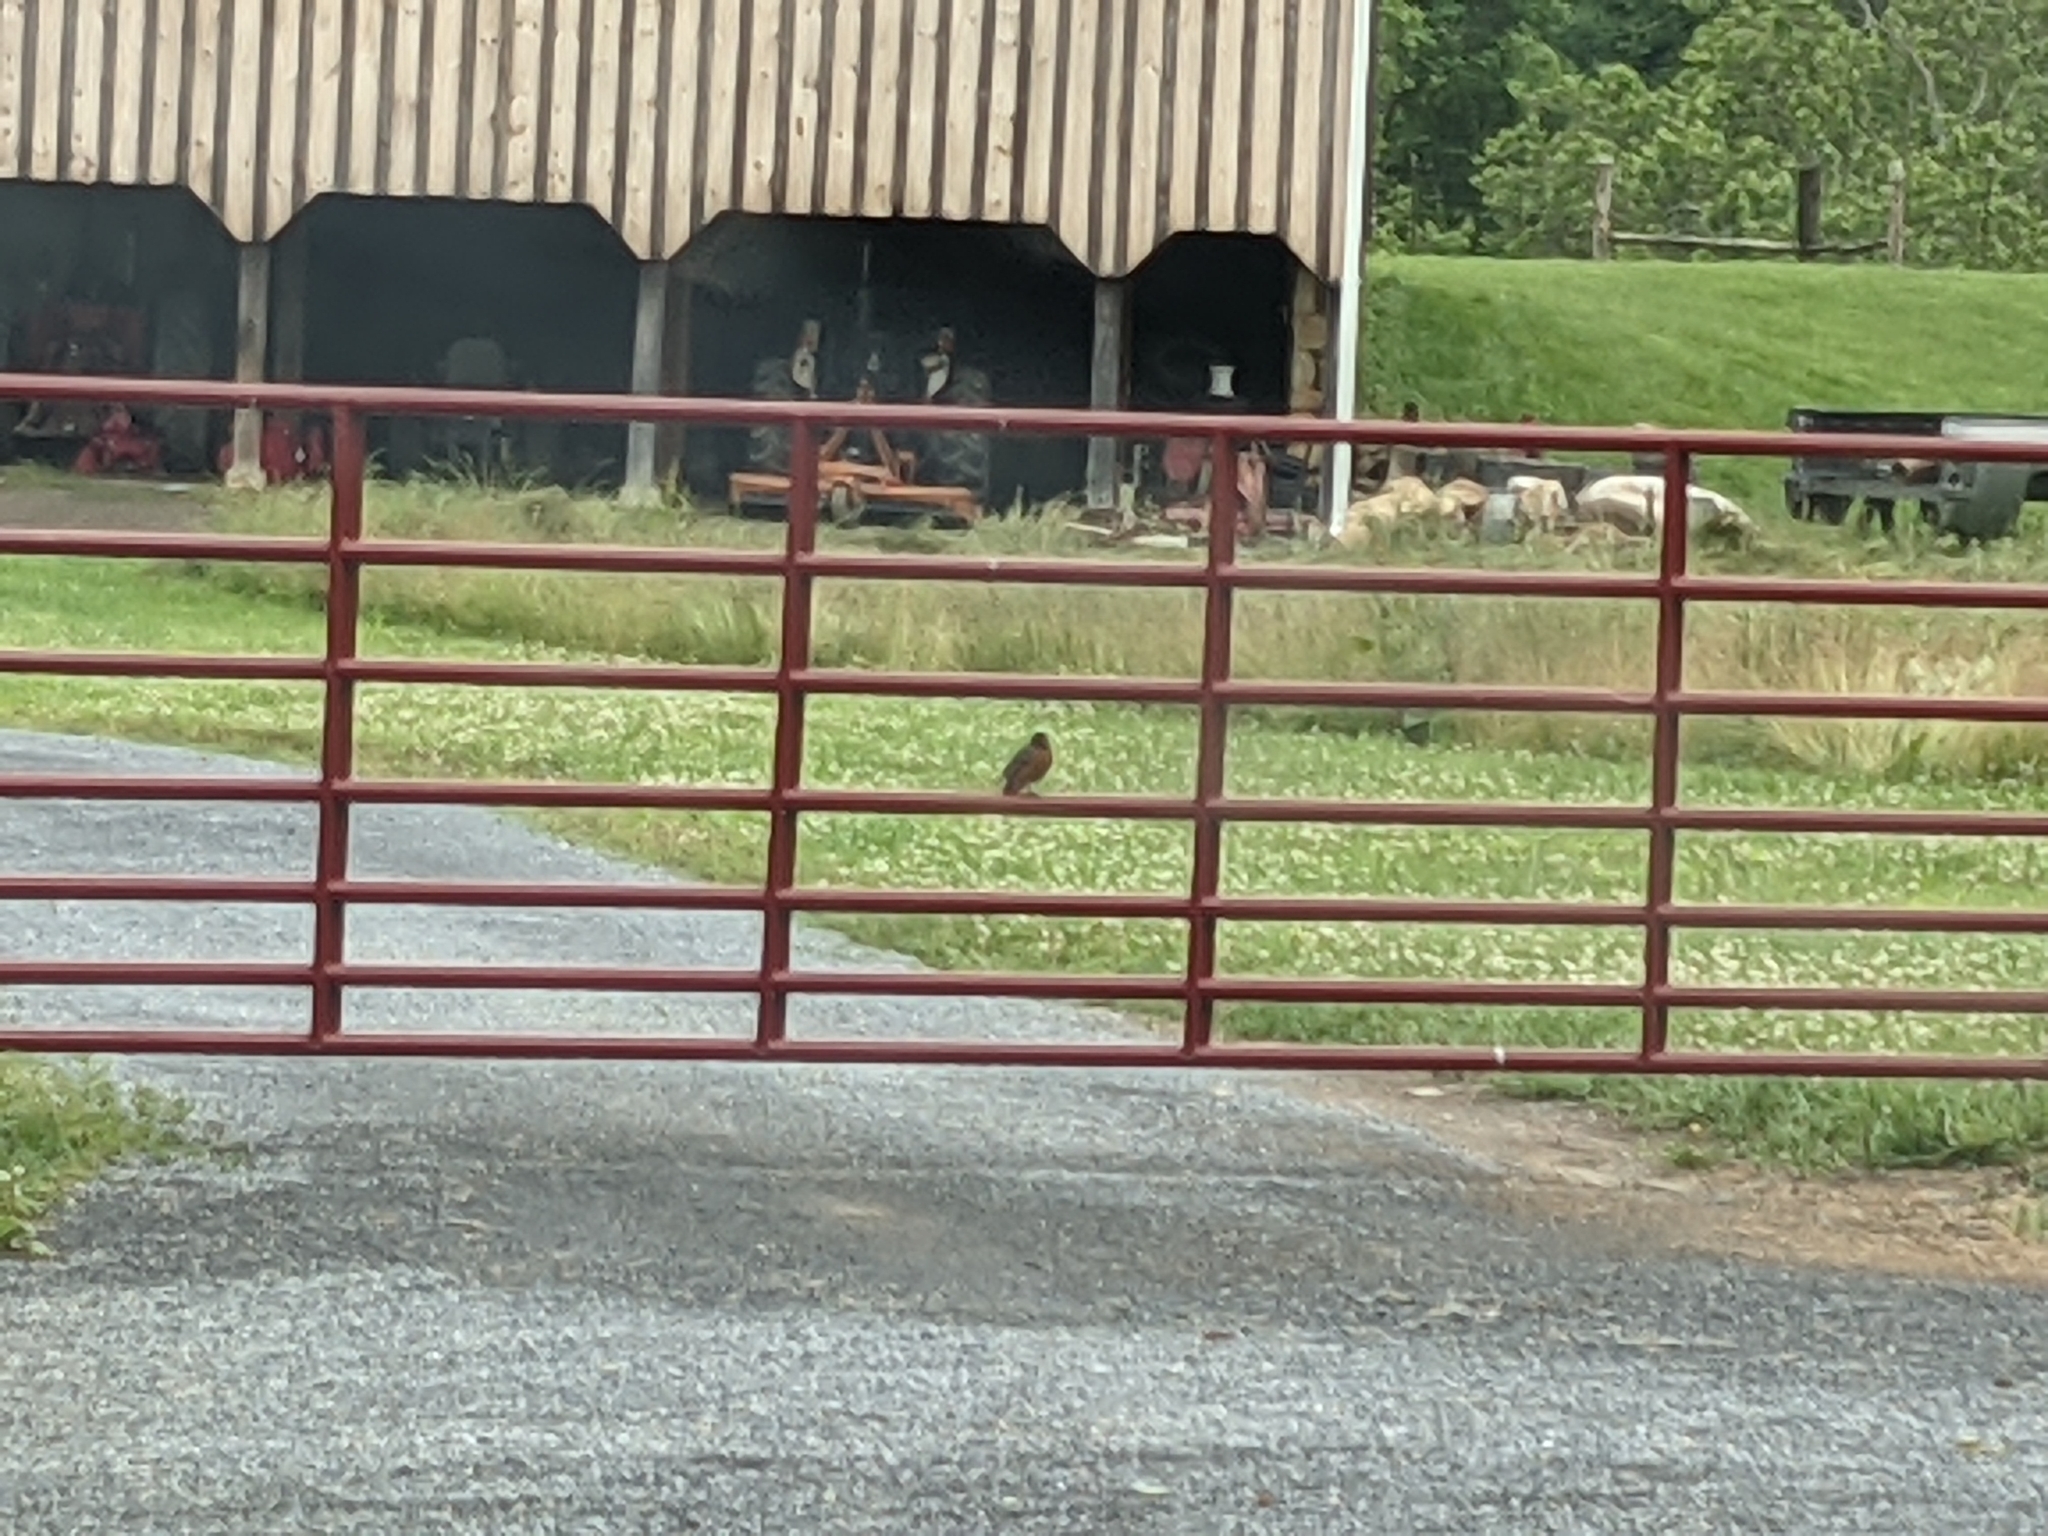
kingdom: Animalia
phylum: Chordata
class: Aves
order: Passeriformes
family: Turdidae
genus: Turdus
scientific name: Turdus migratorius
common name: American robin
